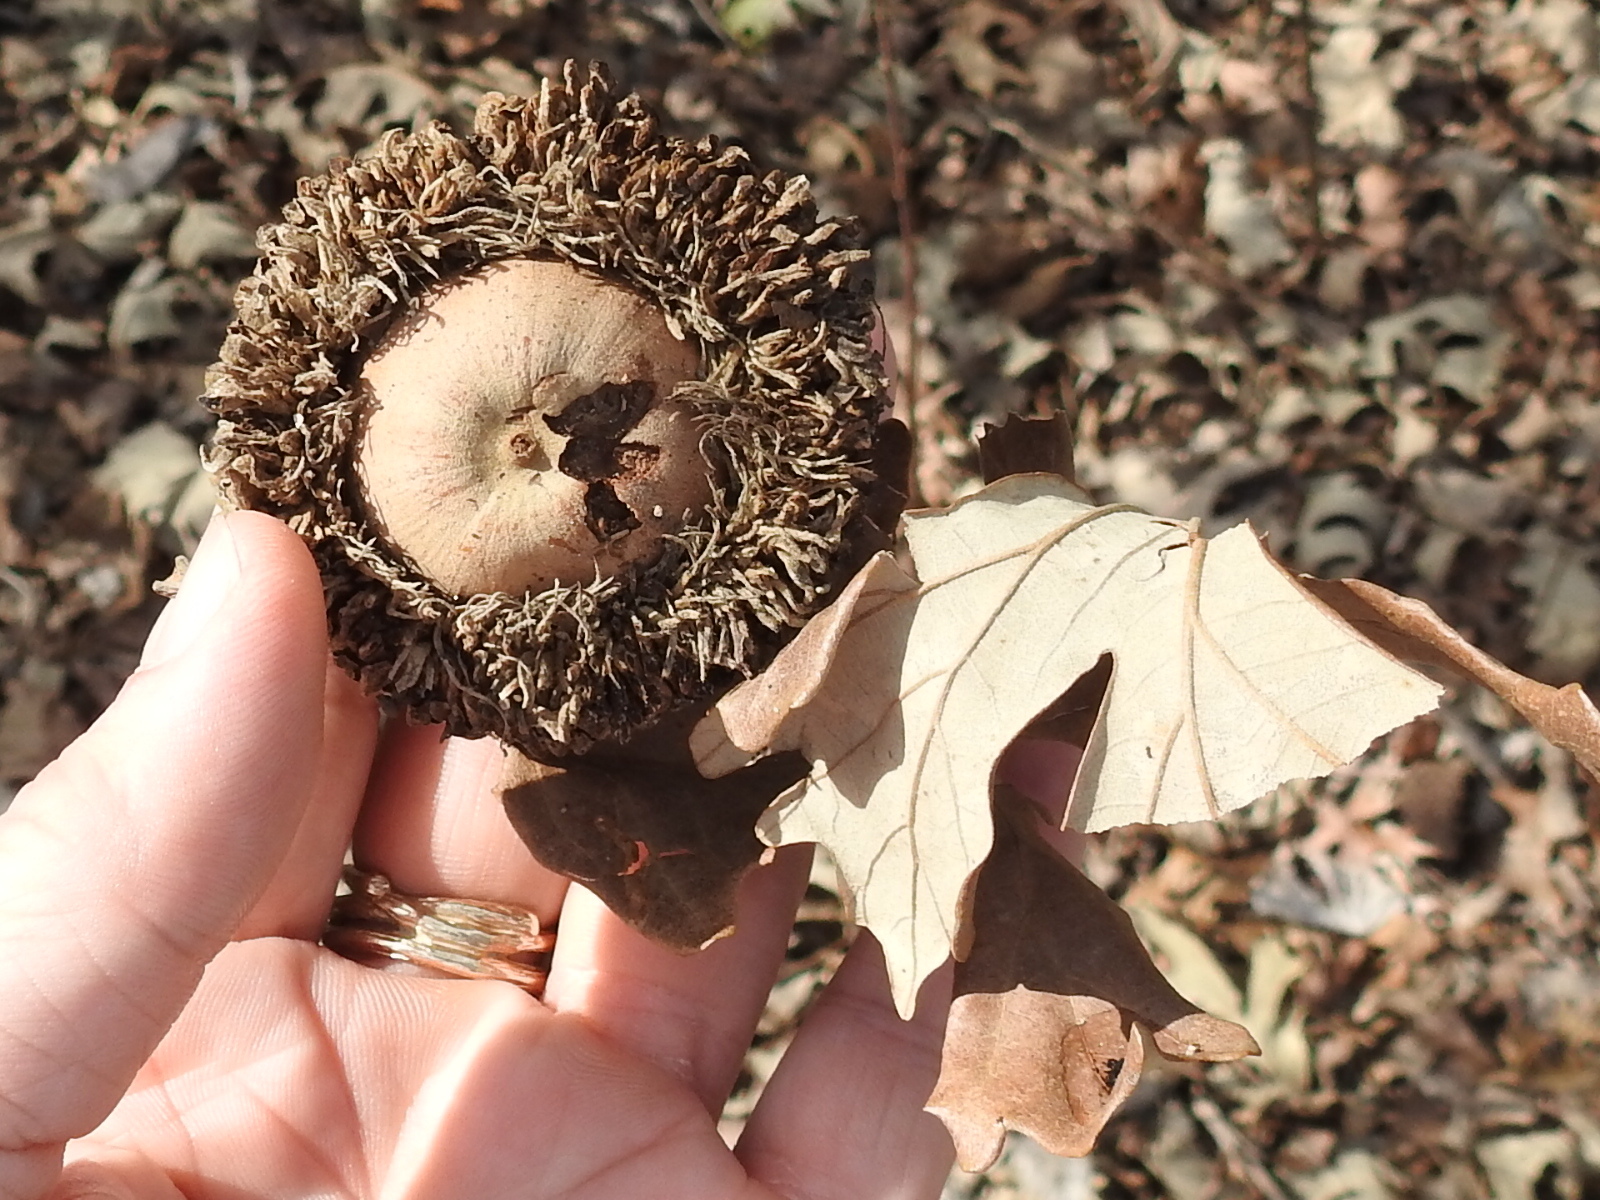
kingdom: Plantae
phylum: Tracheophyta
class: Magnoliopsida
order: Fagales
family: Fagaceae
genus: Quercus
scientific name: Quercus macrocarpa
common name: Bur oak
